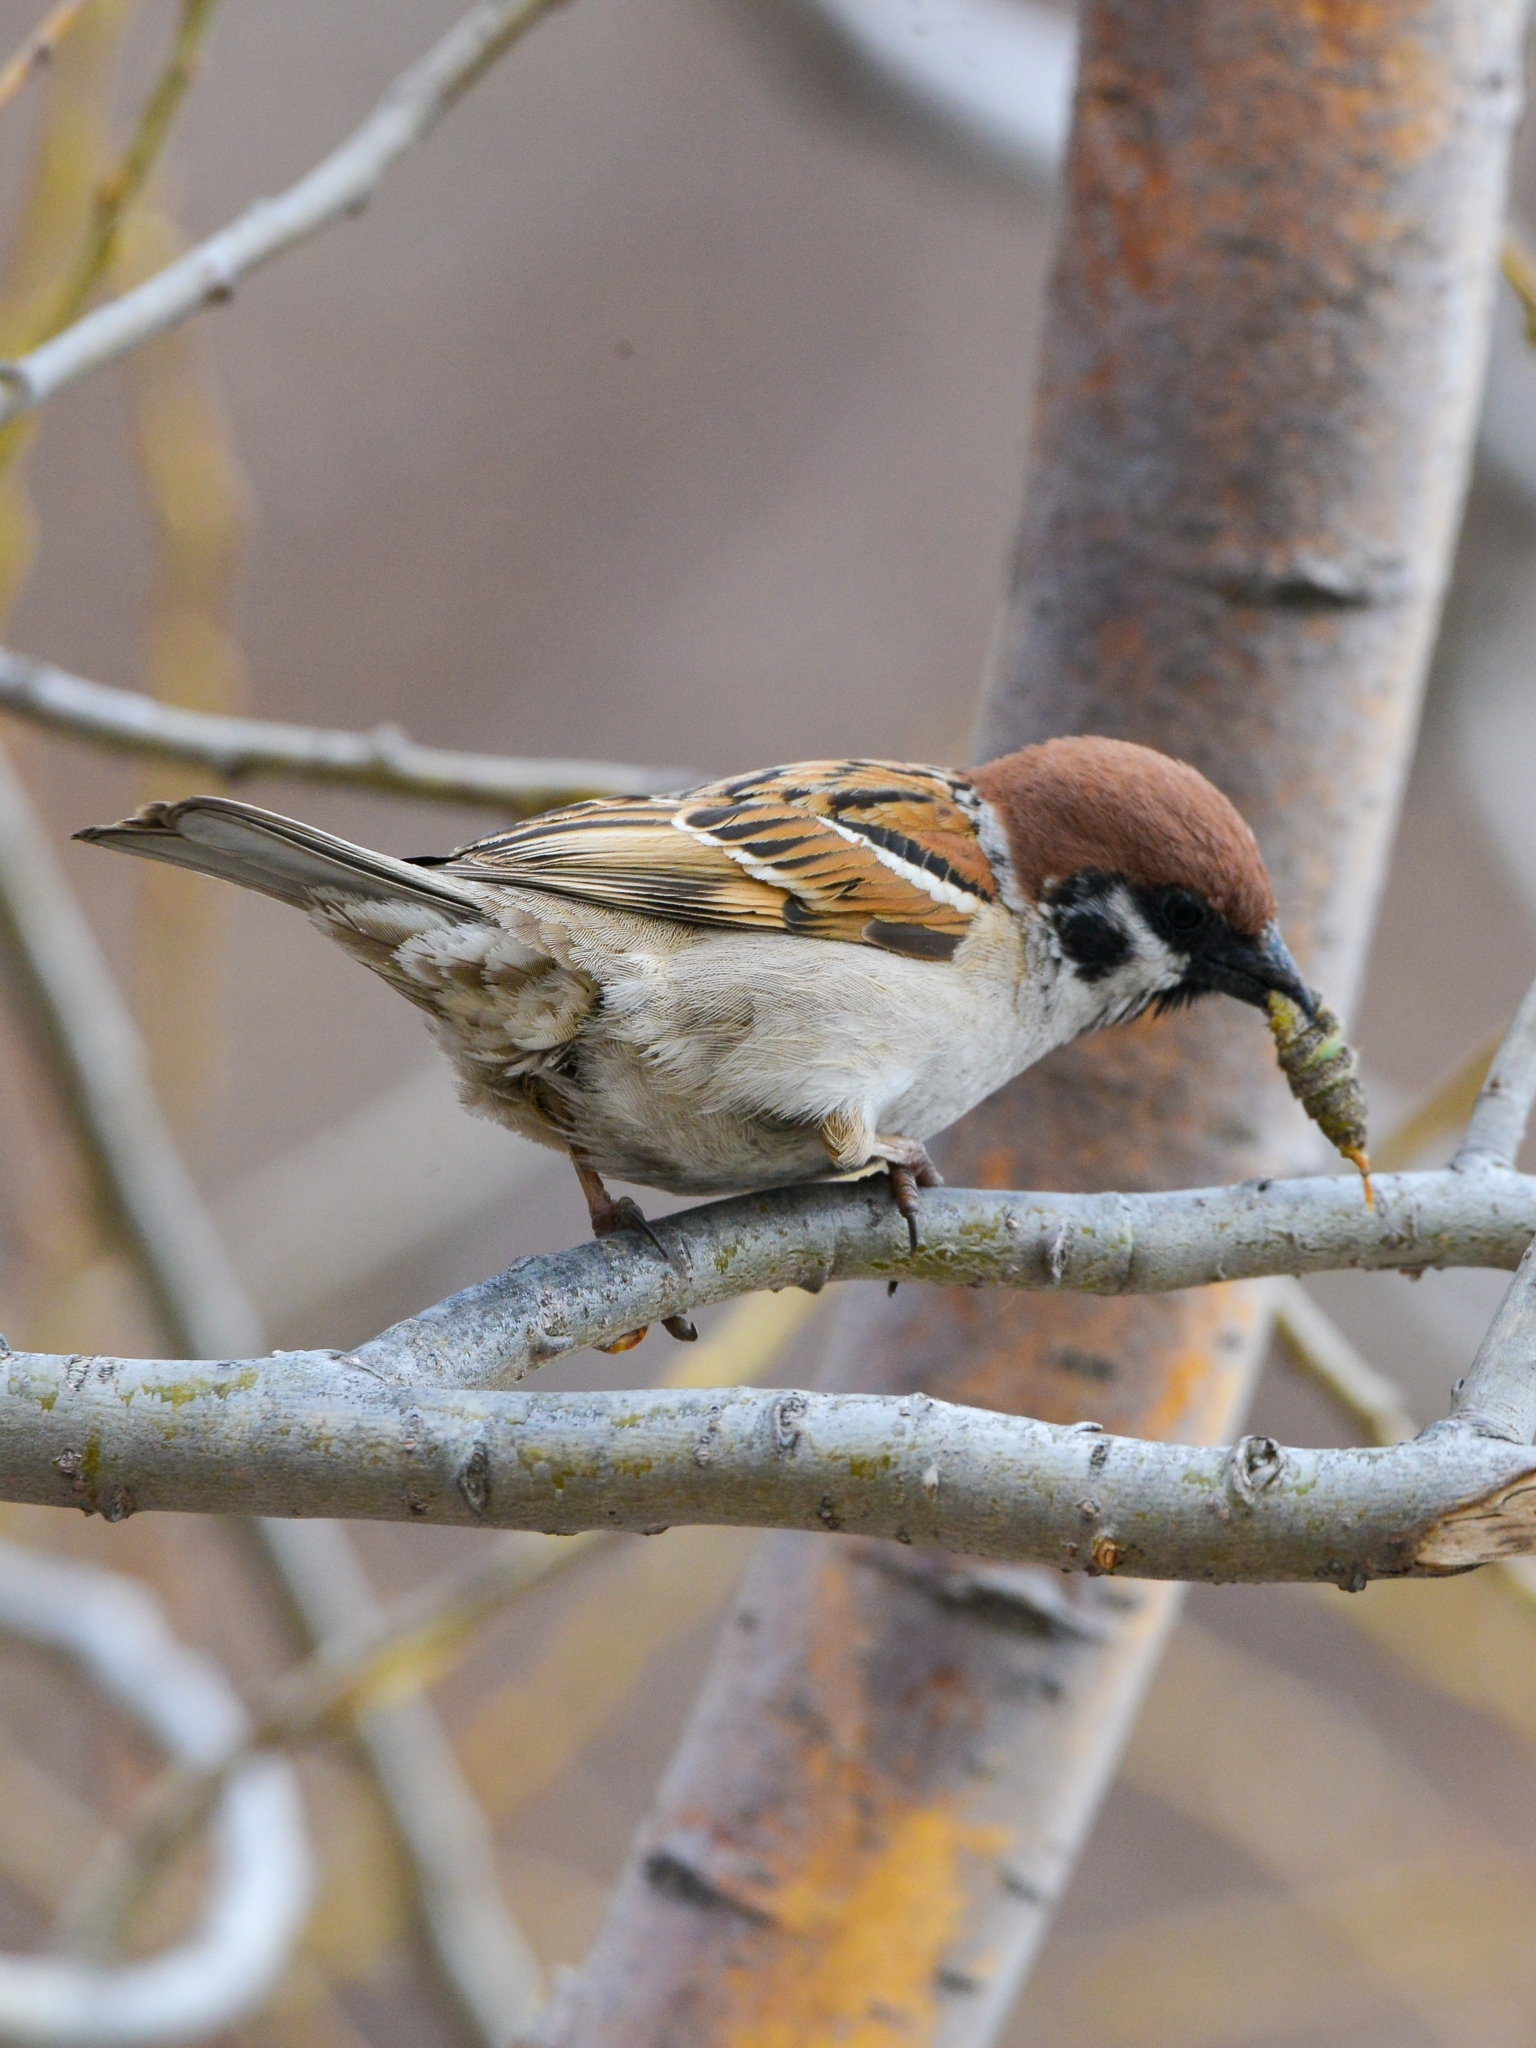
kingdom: Animalia
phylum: Chordata
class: Aves
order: Passeriformes
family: Passeridae
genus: Passer
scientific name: Passer montanus
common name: Eurasian tree sparrow
